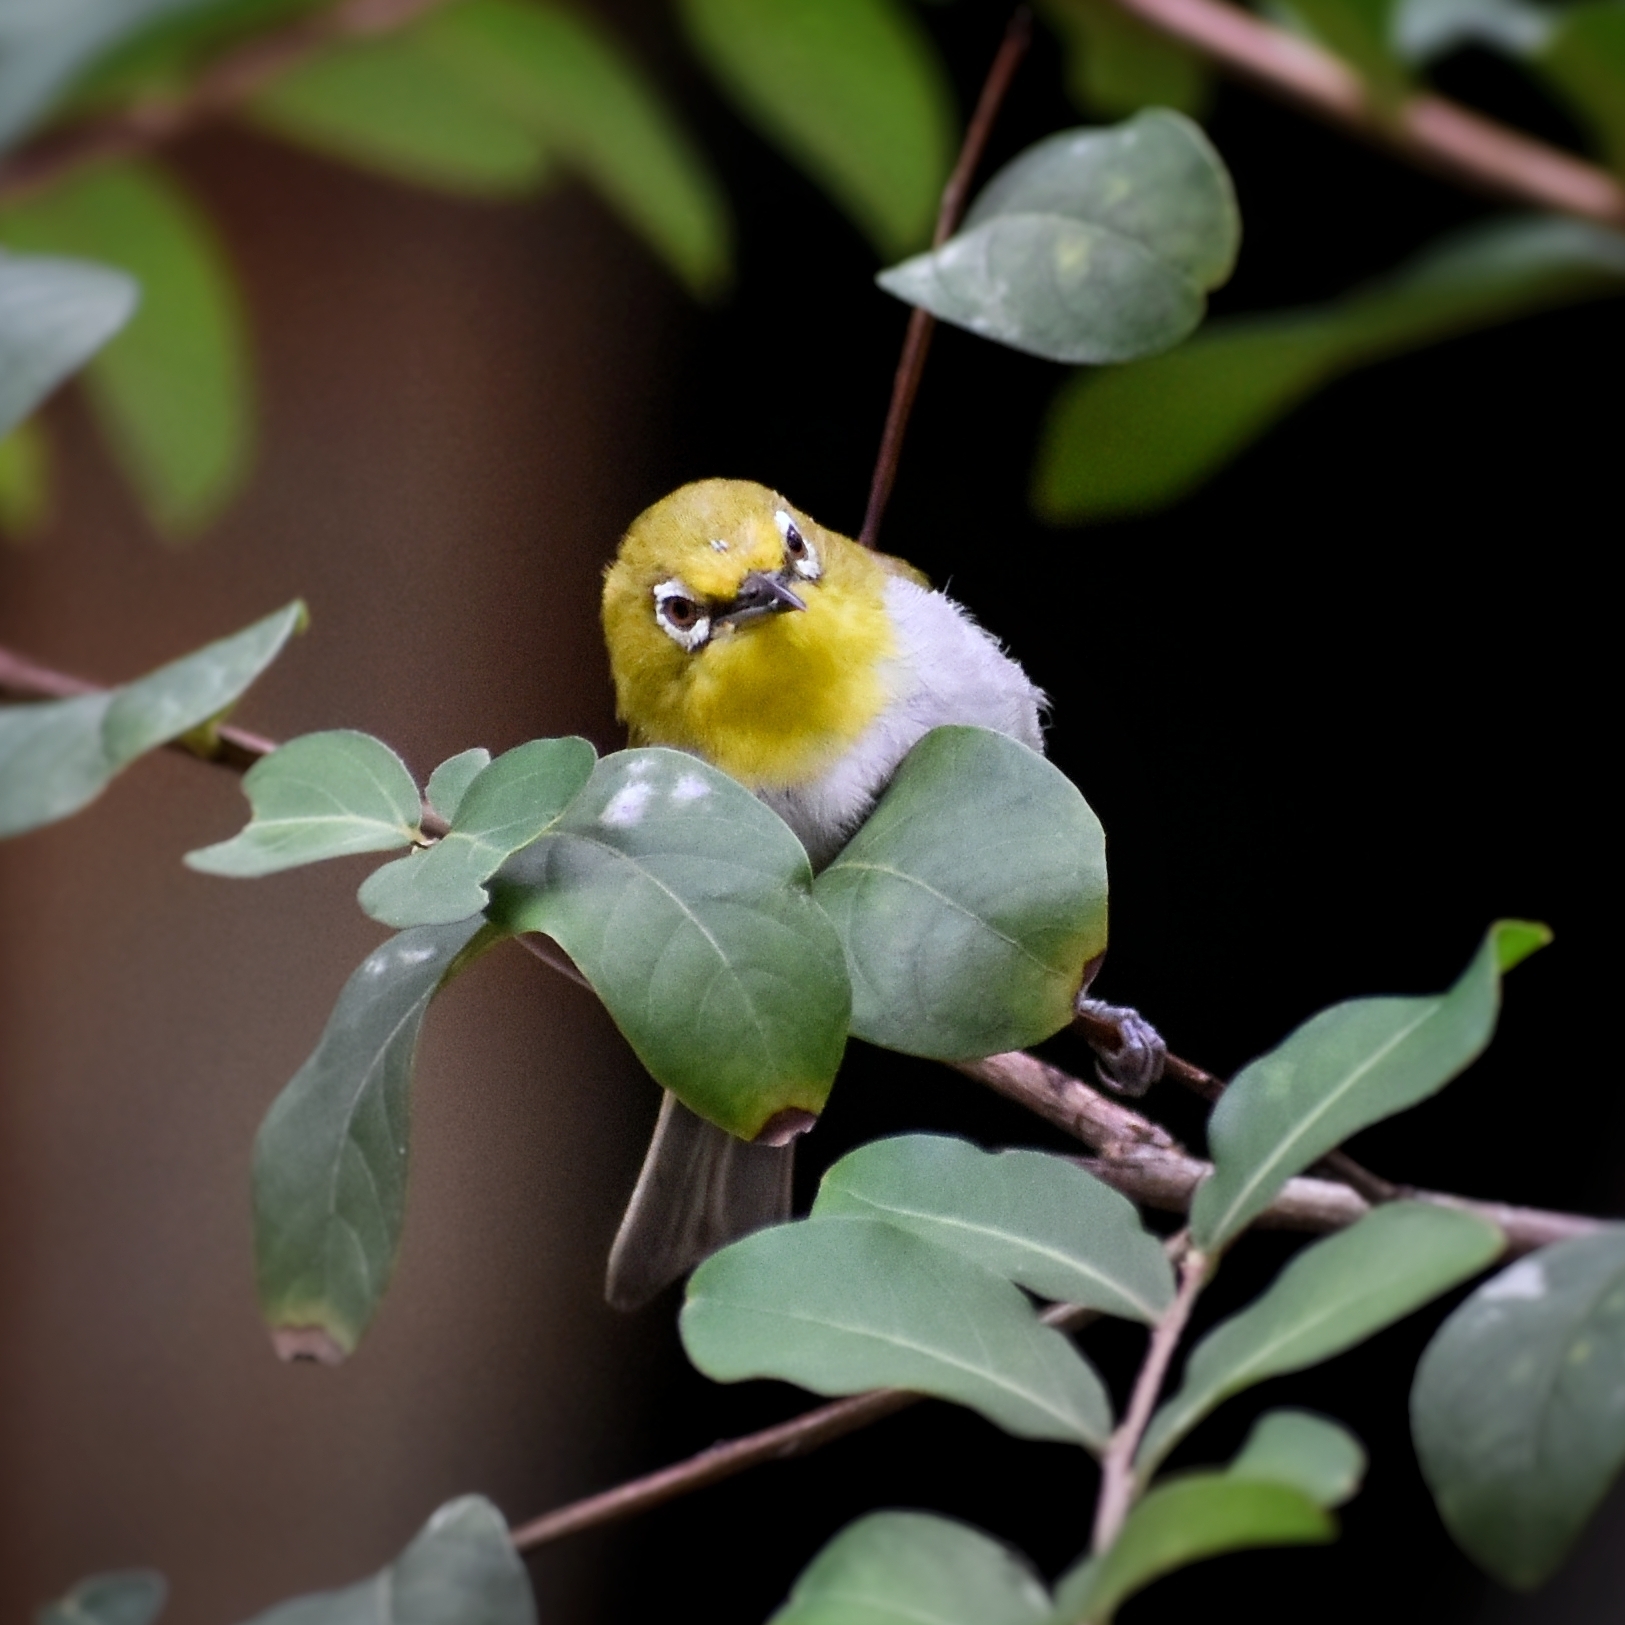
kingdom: Animalia
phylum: Chordata
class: Aves
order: Passeriformes
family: Zosteropidae
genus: Zosterops
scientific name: Zosterops simplex
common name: Swinhoe's white-eye
